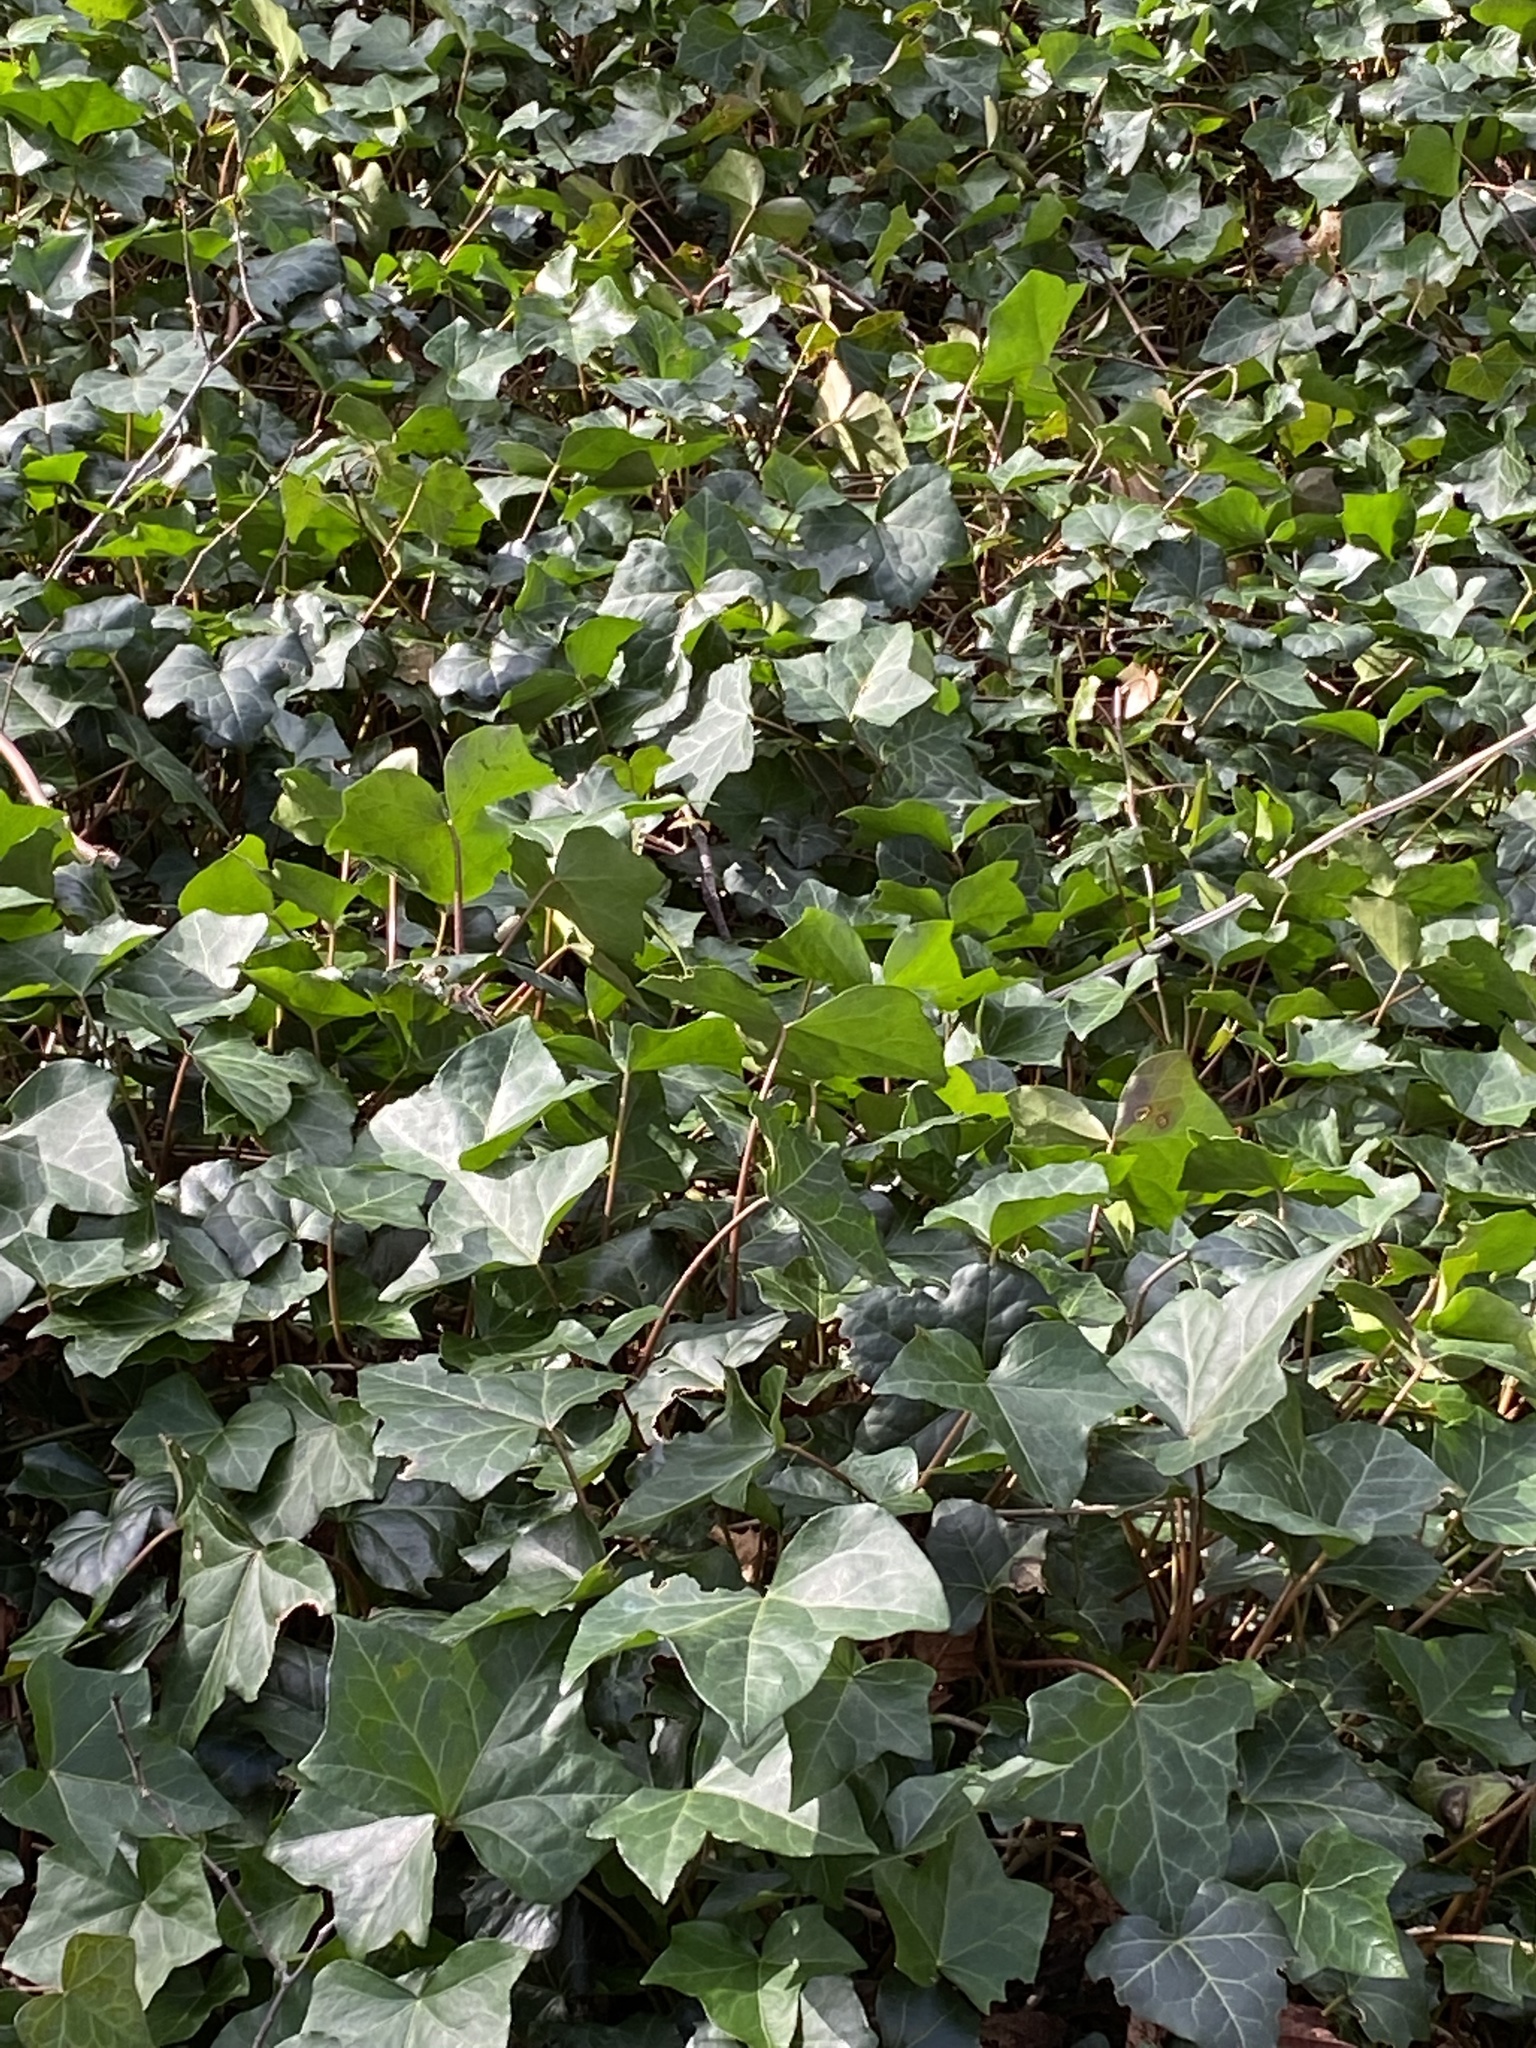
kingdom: Plantae
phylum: Tracheophyta
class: Magnoliopsida
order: Apiales
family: Araliaceae
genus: Hedera
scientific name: Hedera helix
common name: Ivy
